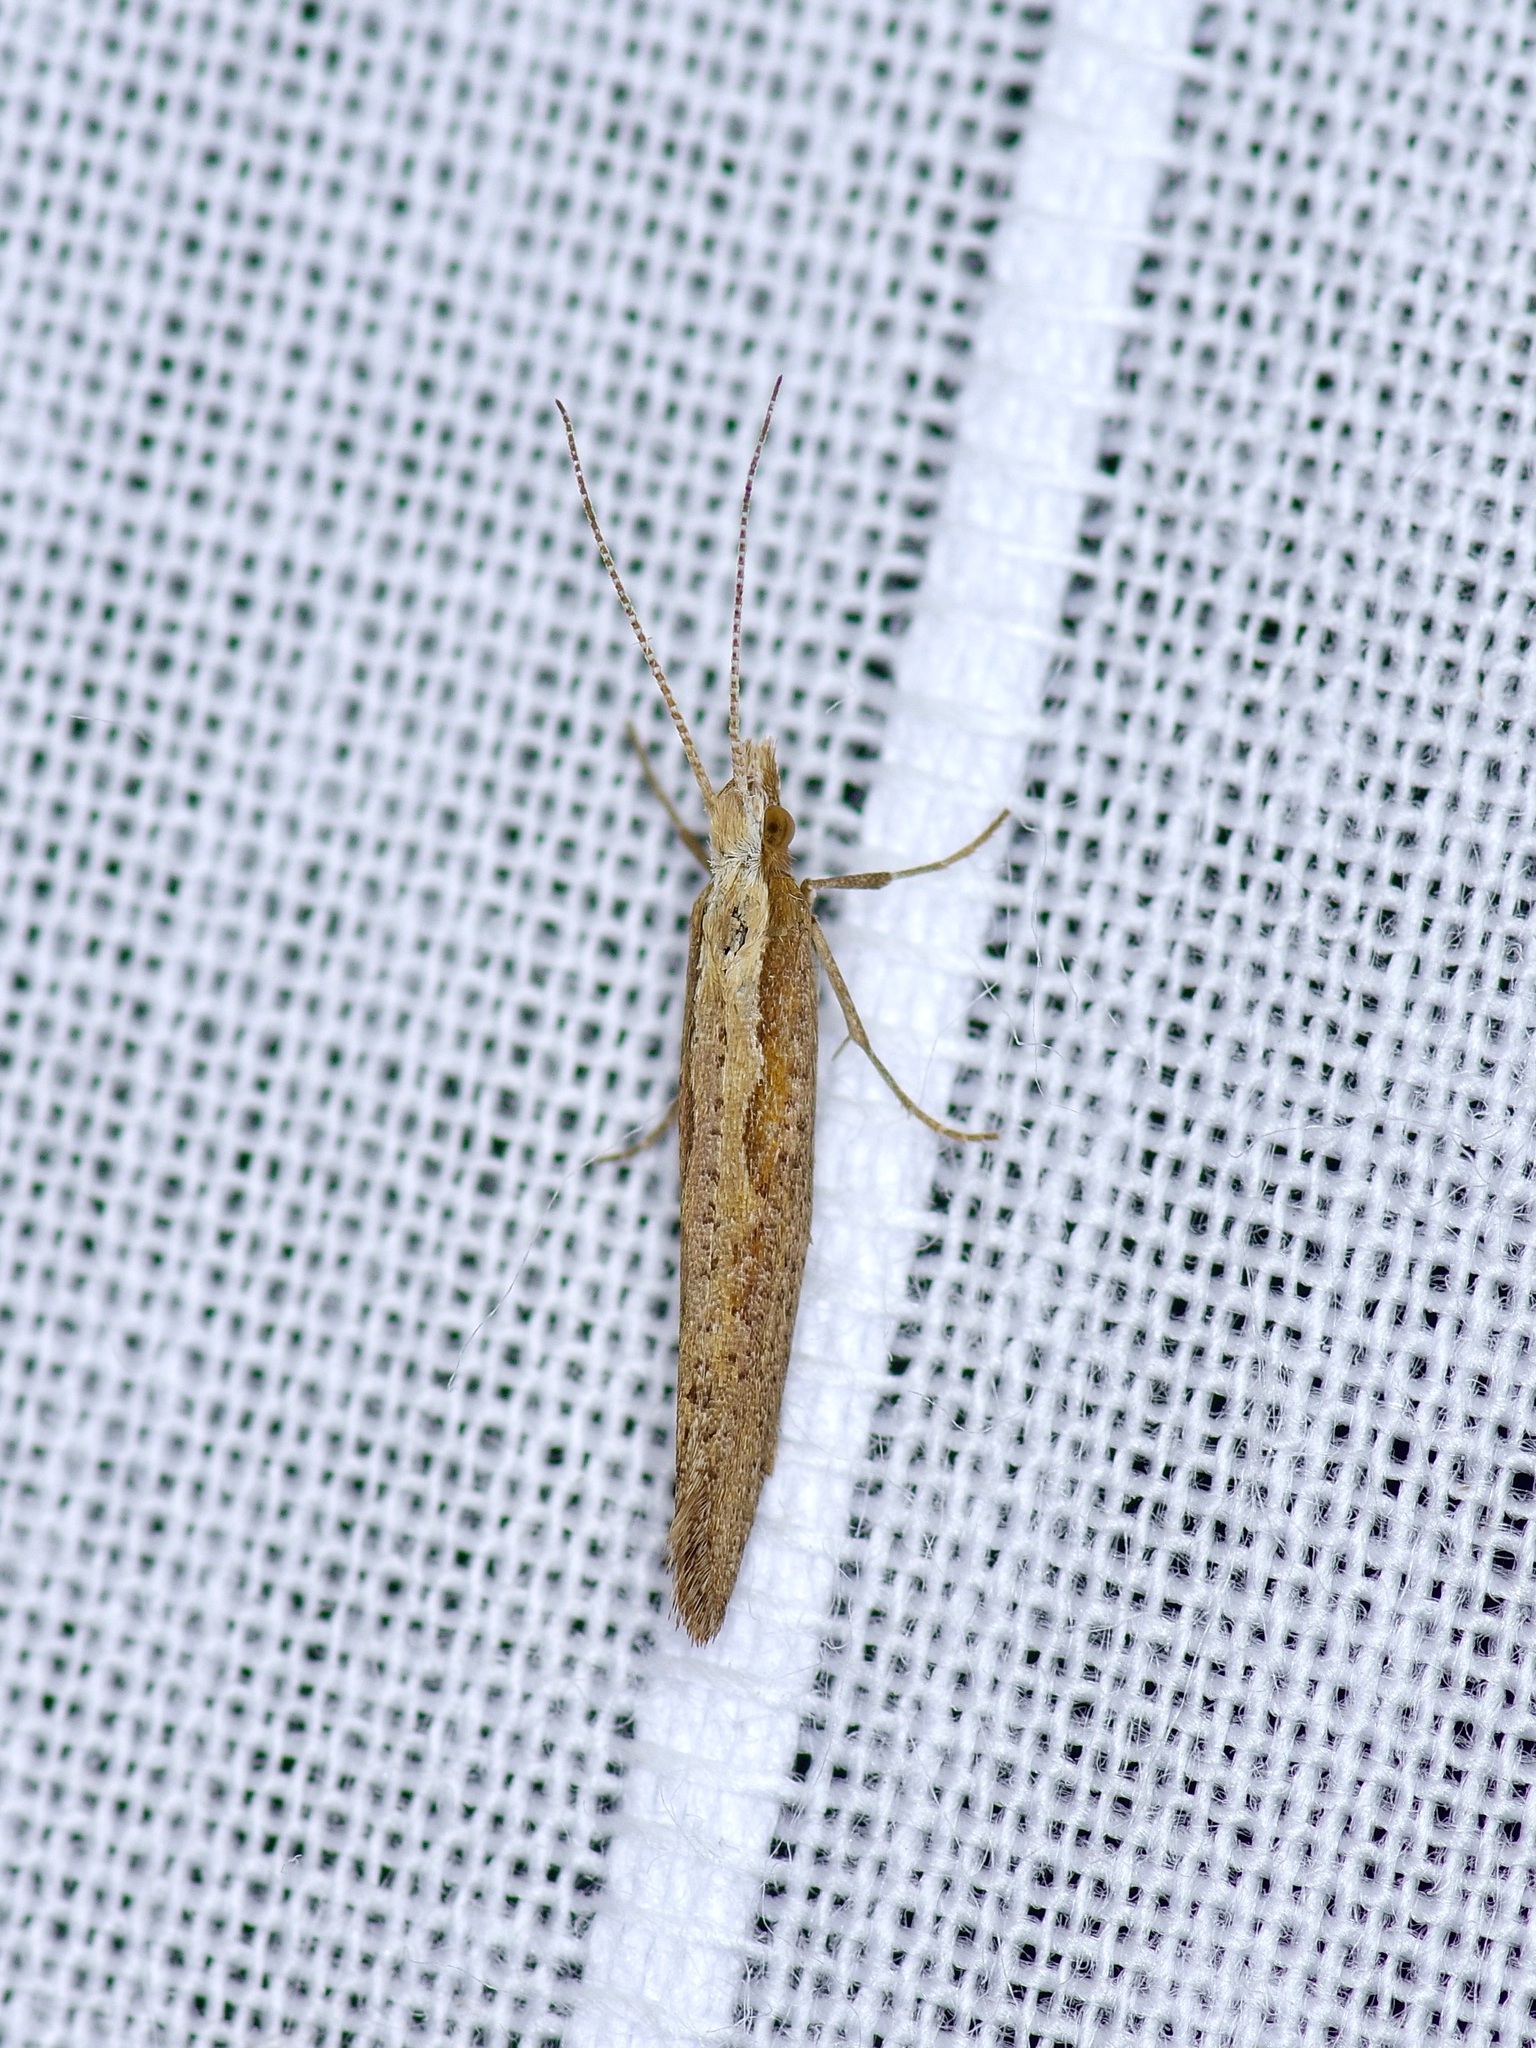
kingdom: Animalia
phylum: Arthropoda
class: Insecta
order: Lepidoptera
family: Plutellidae
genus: Plutella
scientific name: Plutella xylostella
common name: Diamond-back moth
